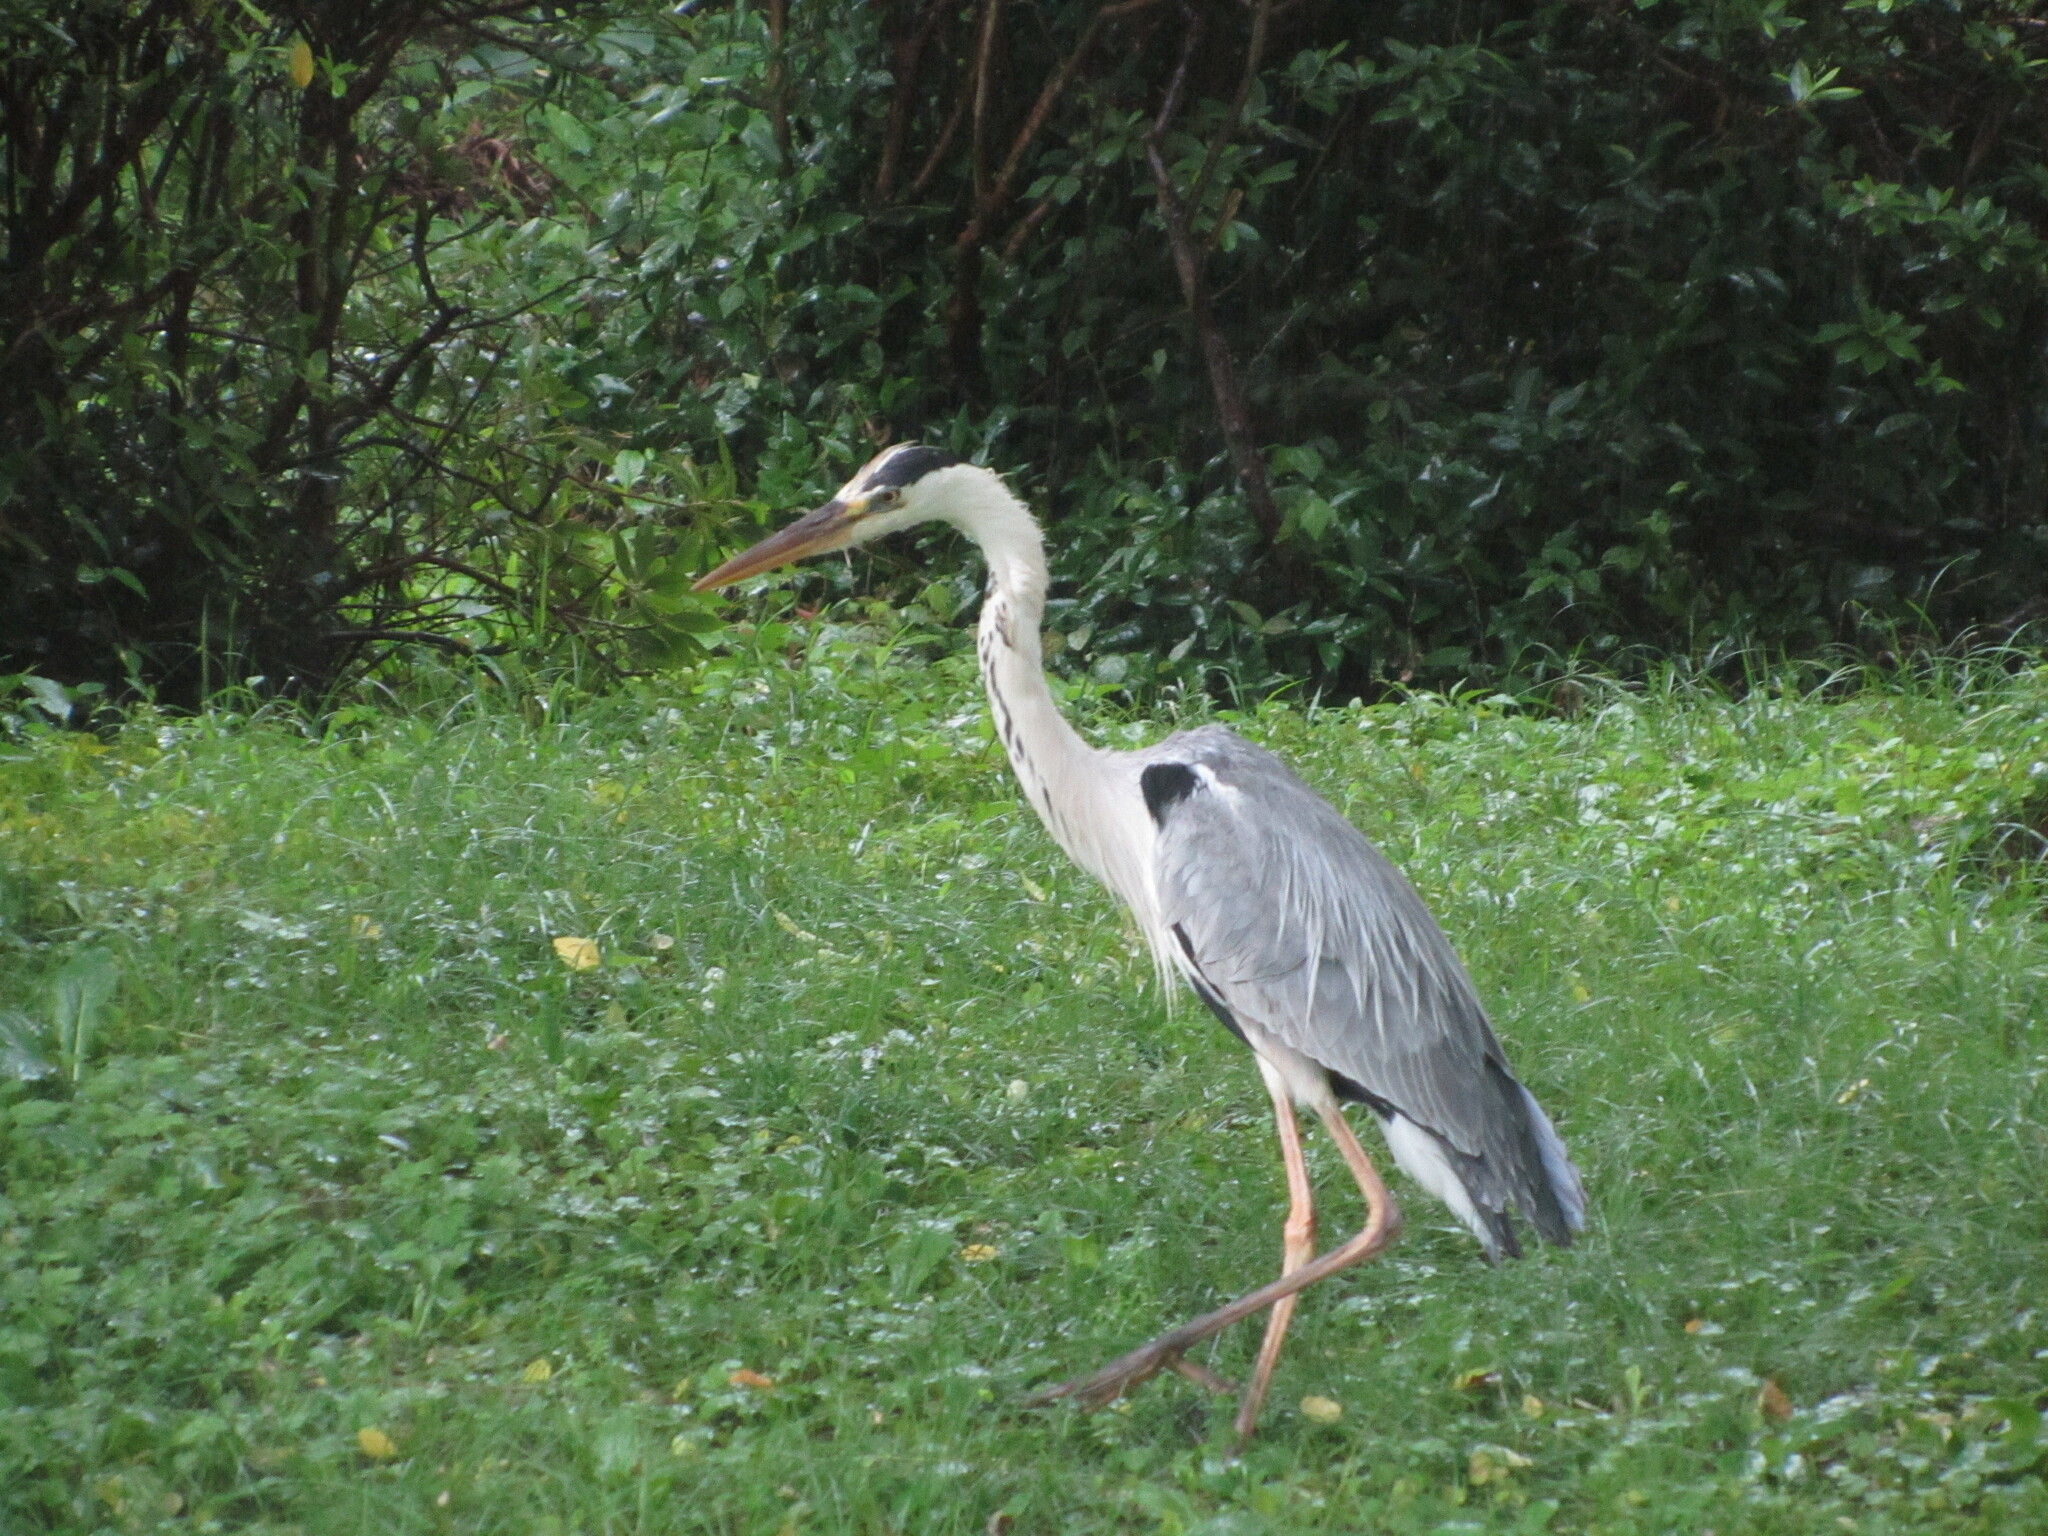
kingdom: Animalia
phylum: Chordata
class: Aves
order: Pelecaniformes
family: Ardeidae
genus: Ardea
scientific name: Ardea cinerea
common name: Grey heron
